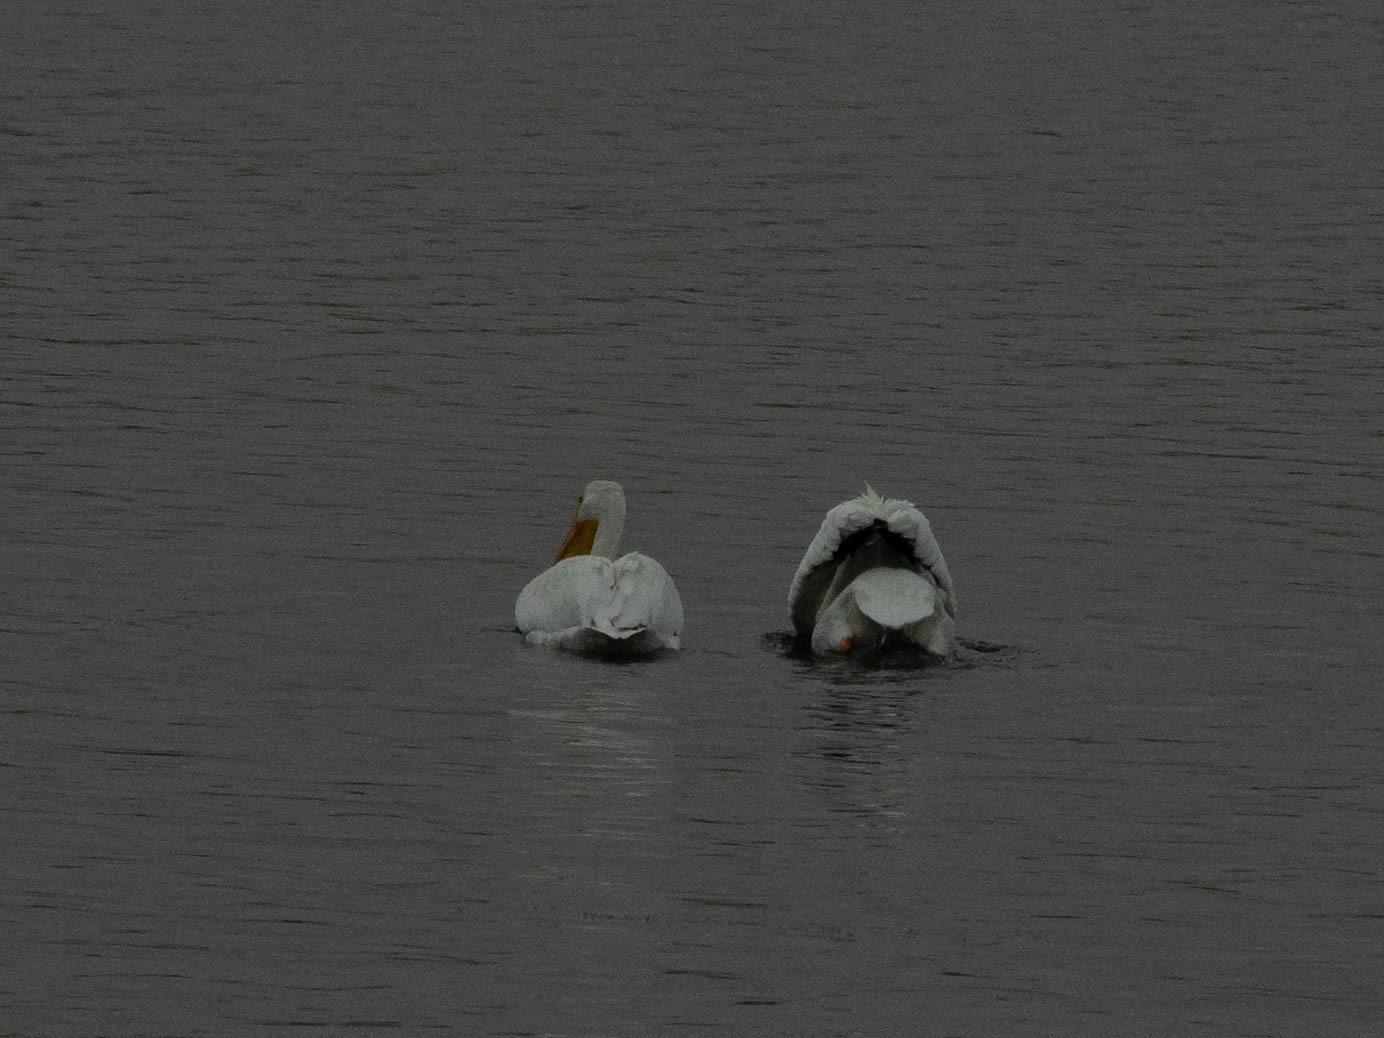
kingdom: Animalia
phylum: Chordata
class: Aves
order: Pelecaniformes
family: Pelecanidae
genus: Pelecanus
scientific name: Pelecanus erythrorhynchos
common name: American white pelican
